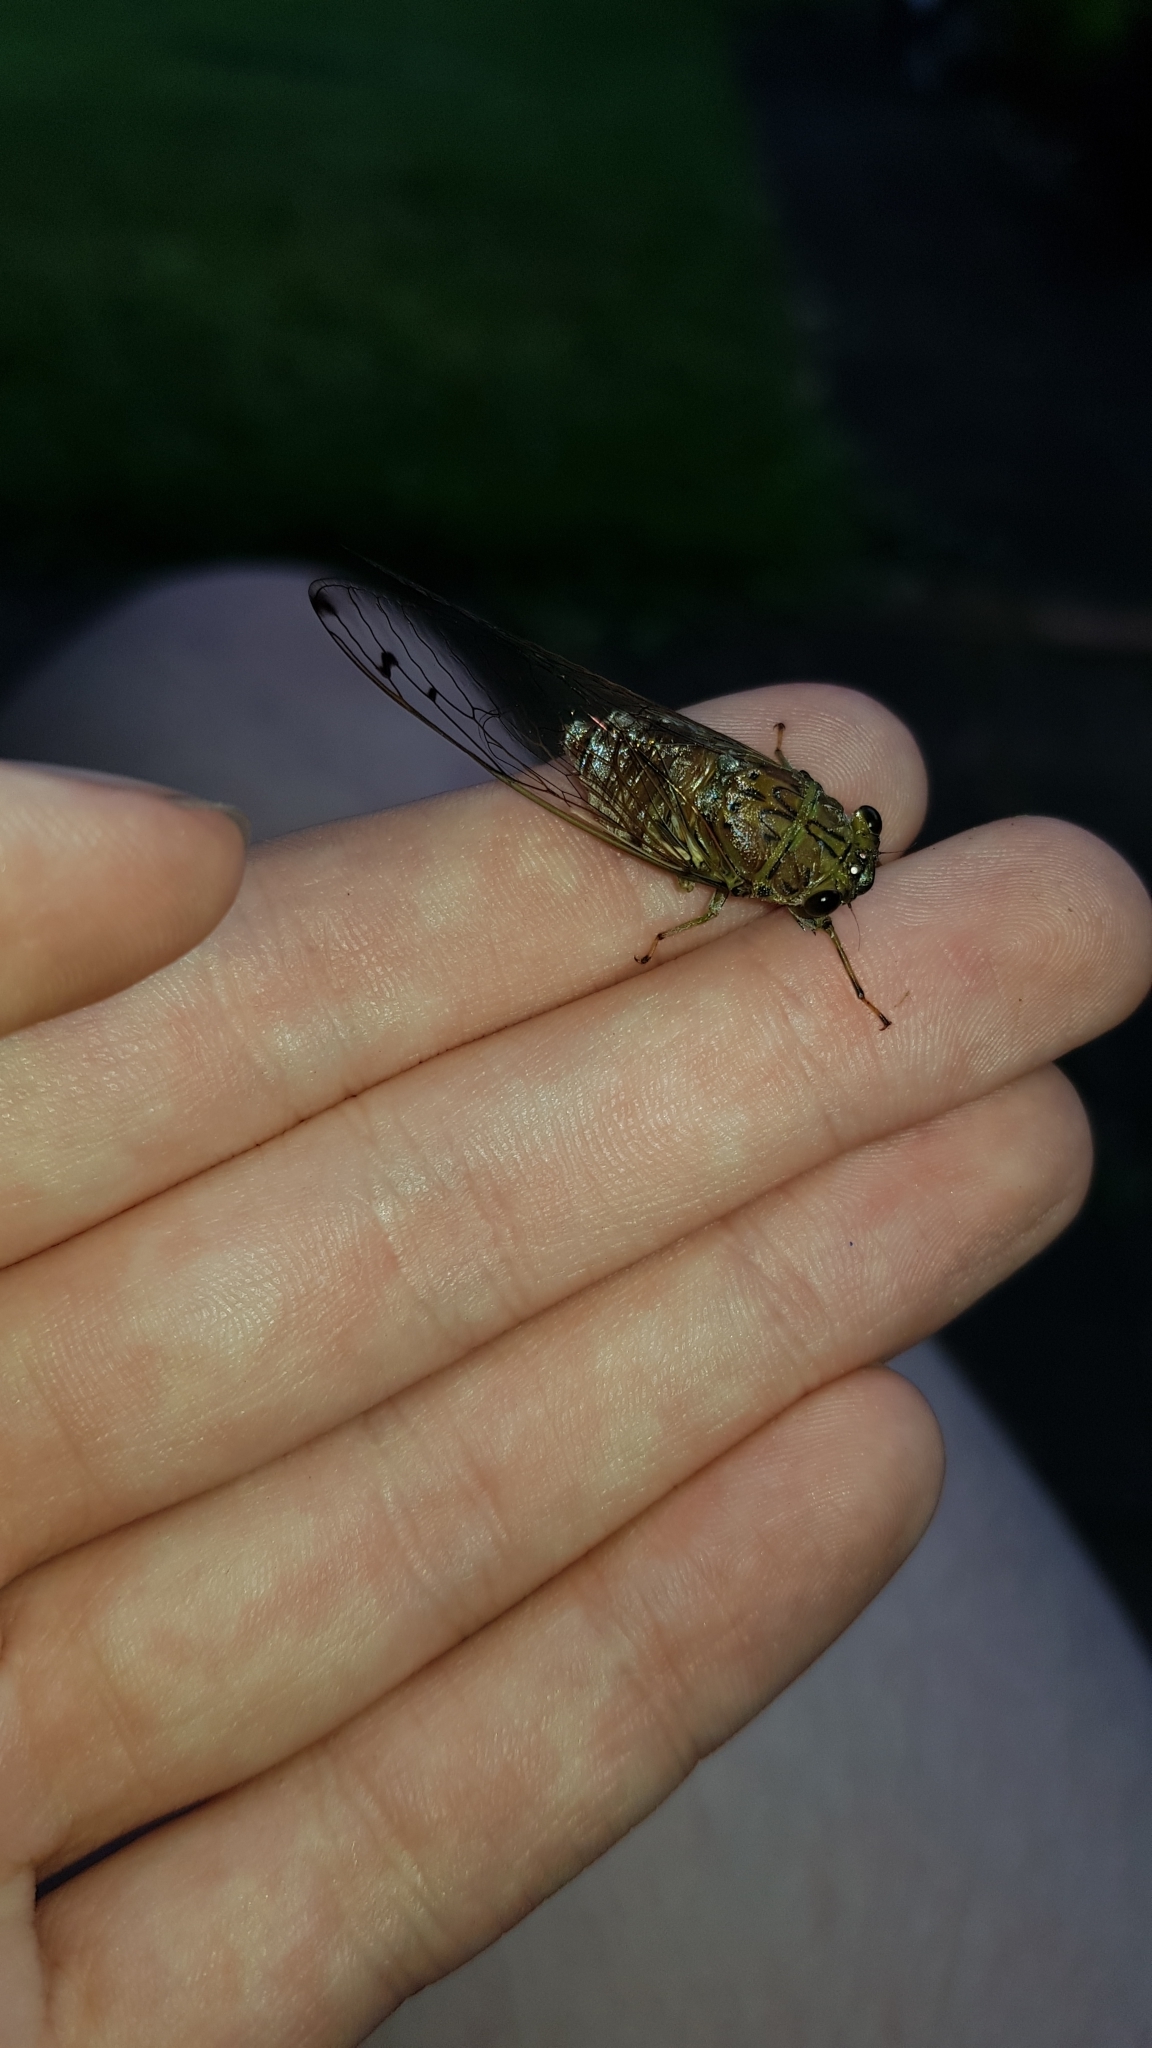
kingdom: Animalia
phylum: Arthropoda
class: Insecta
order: Hemiptera
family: Cicadidae
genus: Tamasa
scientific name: Tamasa tristigma
